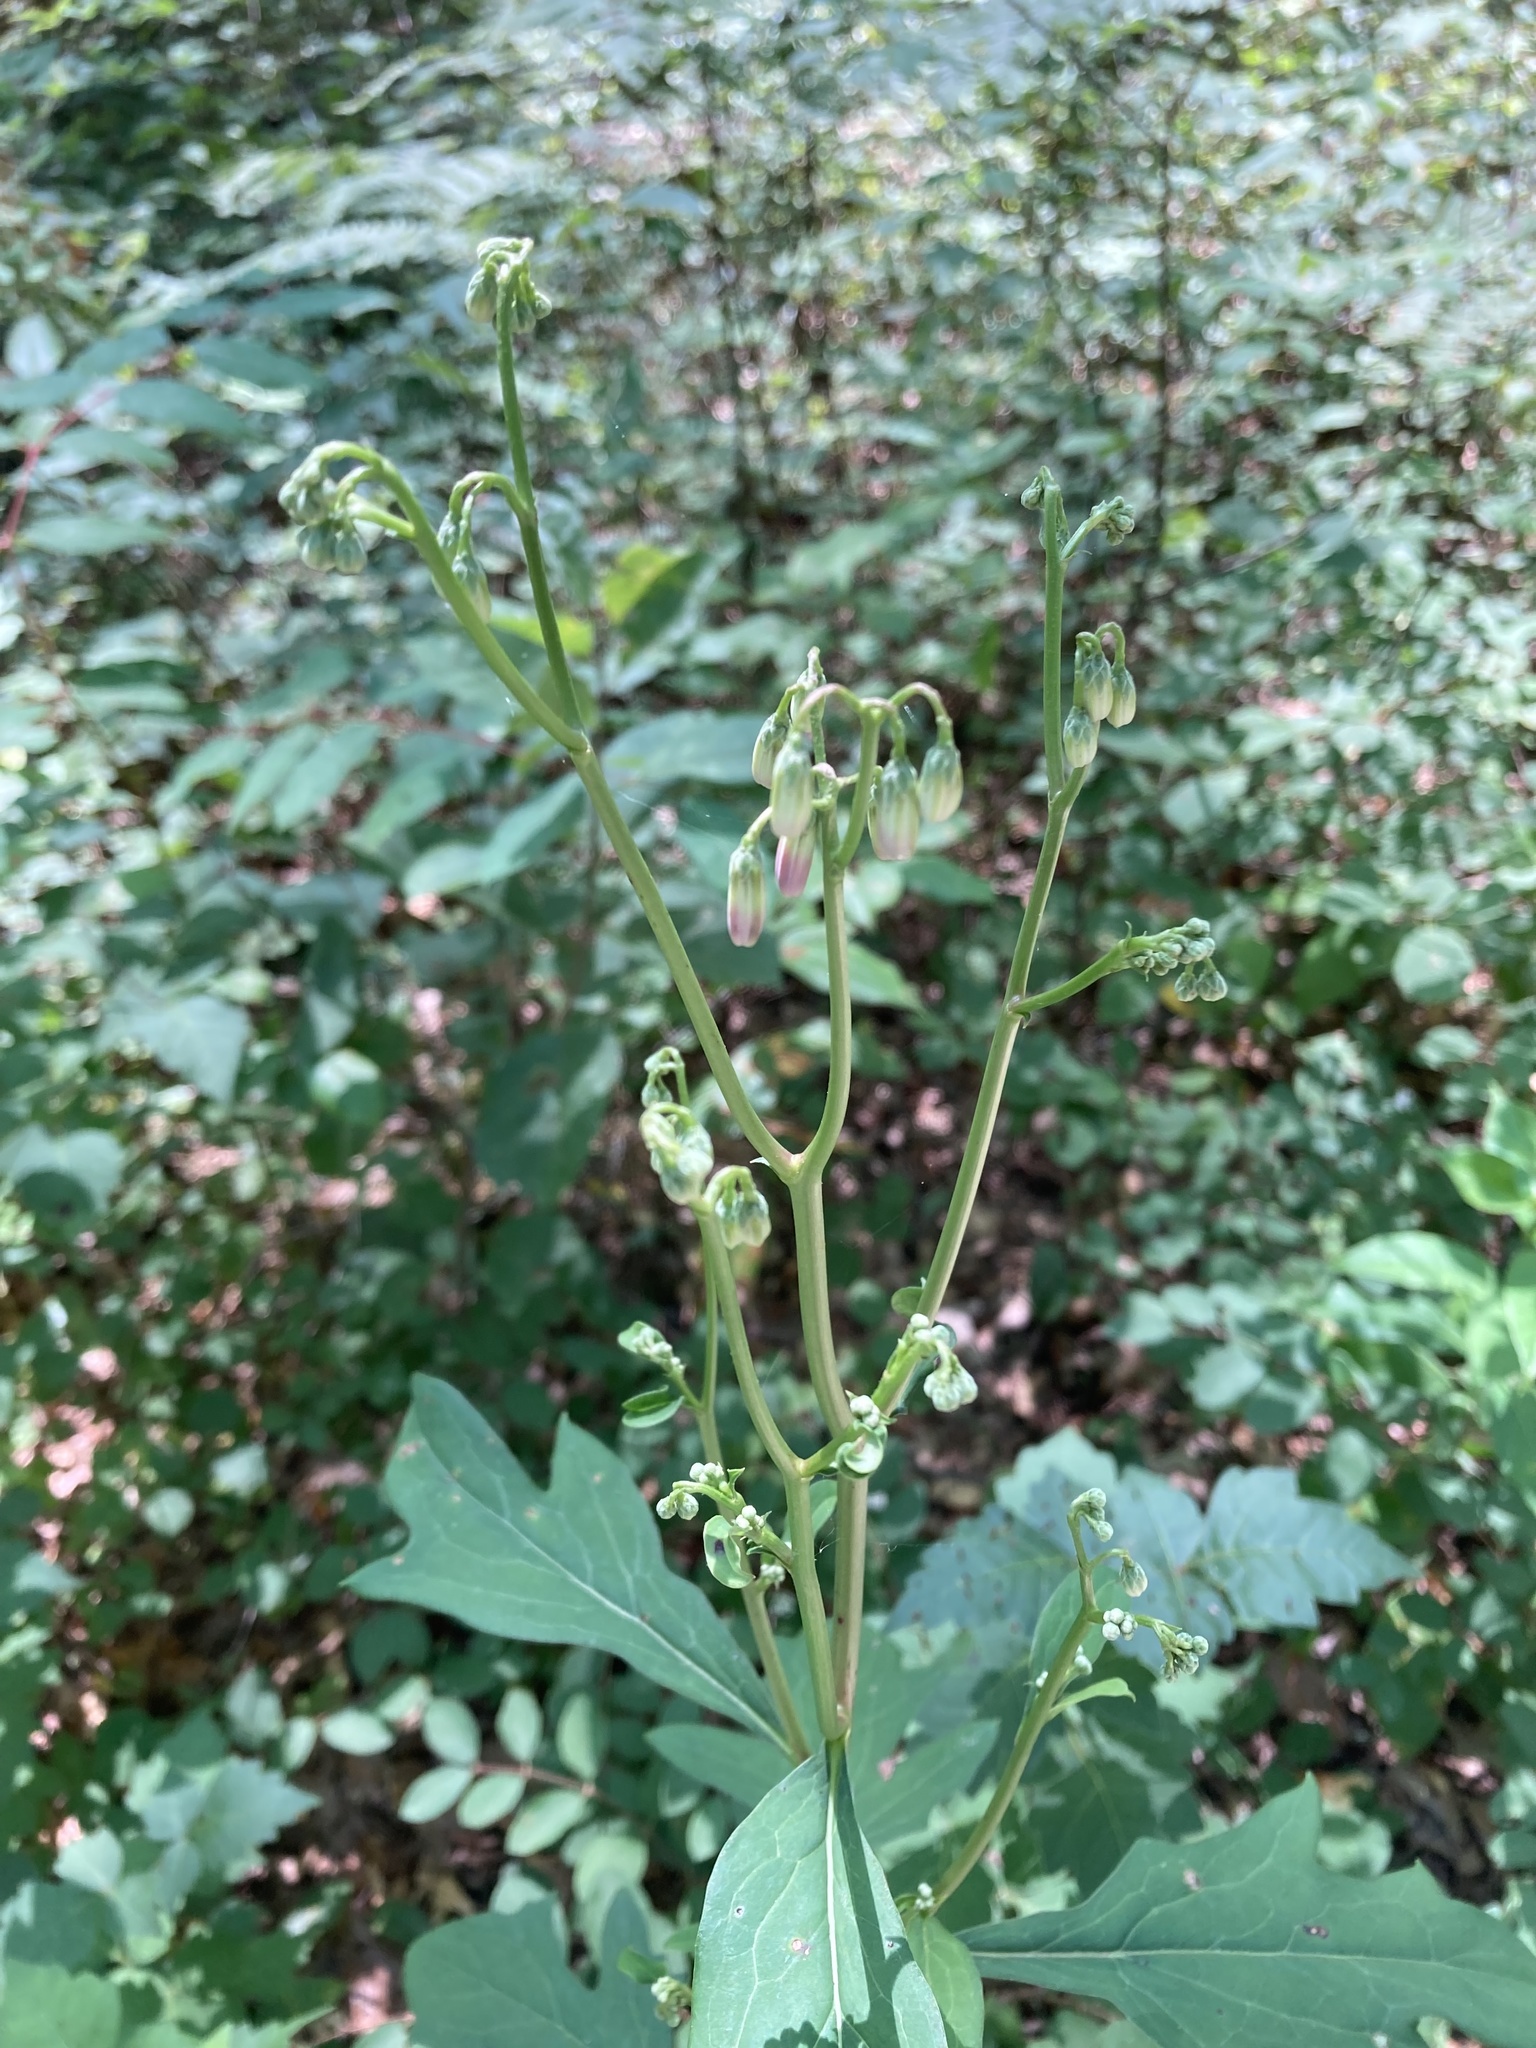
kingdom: Plantae
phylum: Tracheophyta
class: Magnoliopsida
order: Asterales
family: Asteraceae
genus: Nabalus
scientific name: Nabalus albus
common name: White rattlesnakeroot
